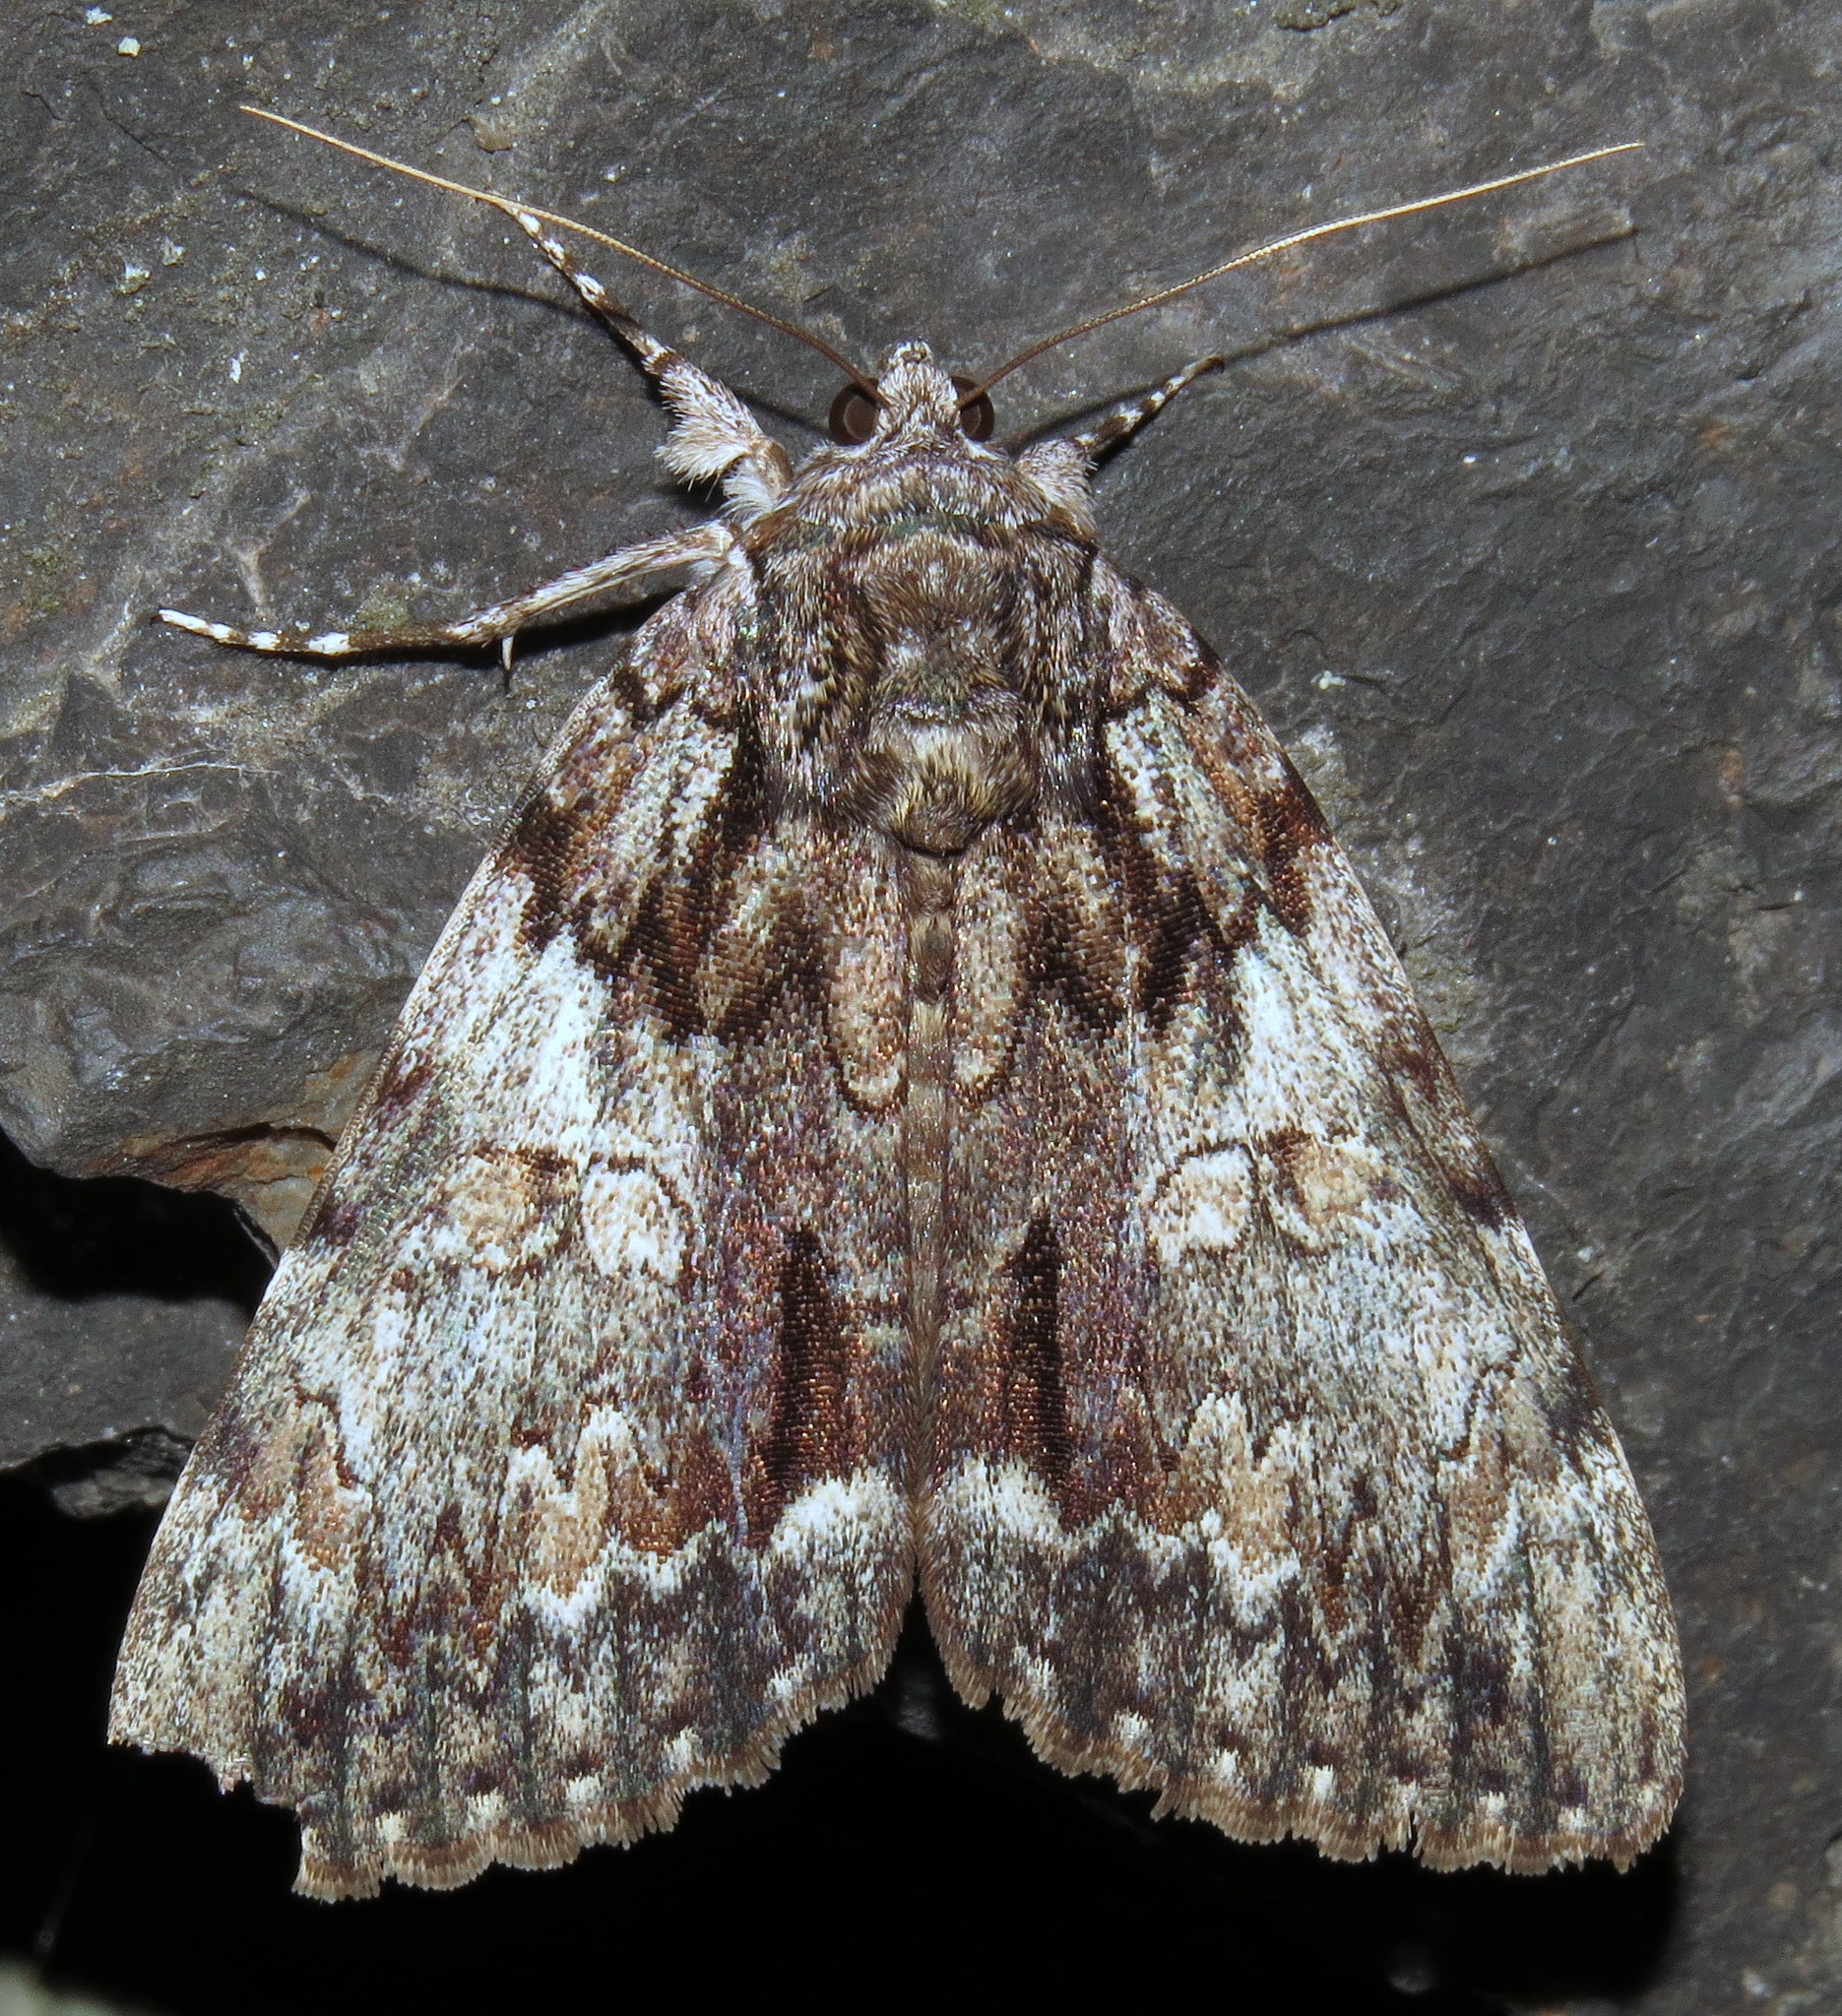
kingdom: Animalia
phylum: Arthropoda
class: Insecta
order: Lepidoptera
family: Erebidae
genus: Catocala
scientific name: Catocala palaeogama
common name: Oldwife underwing
